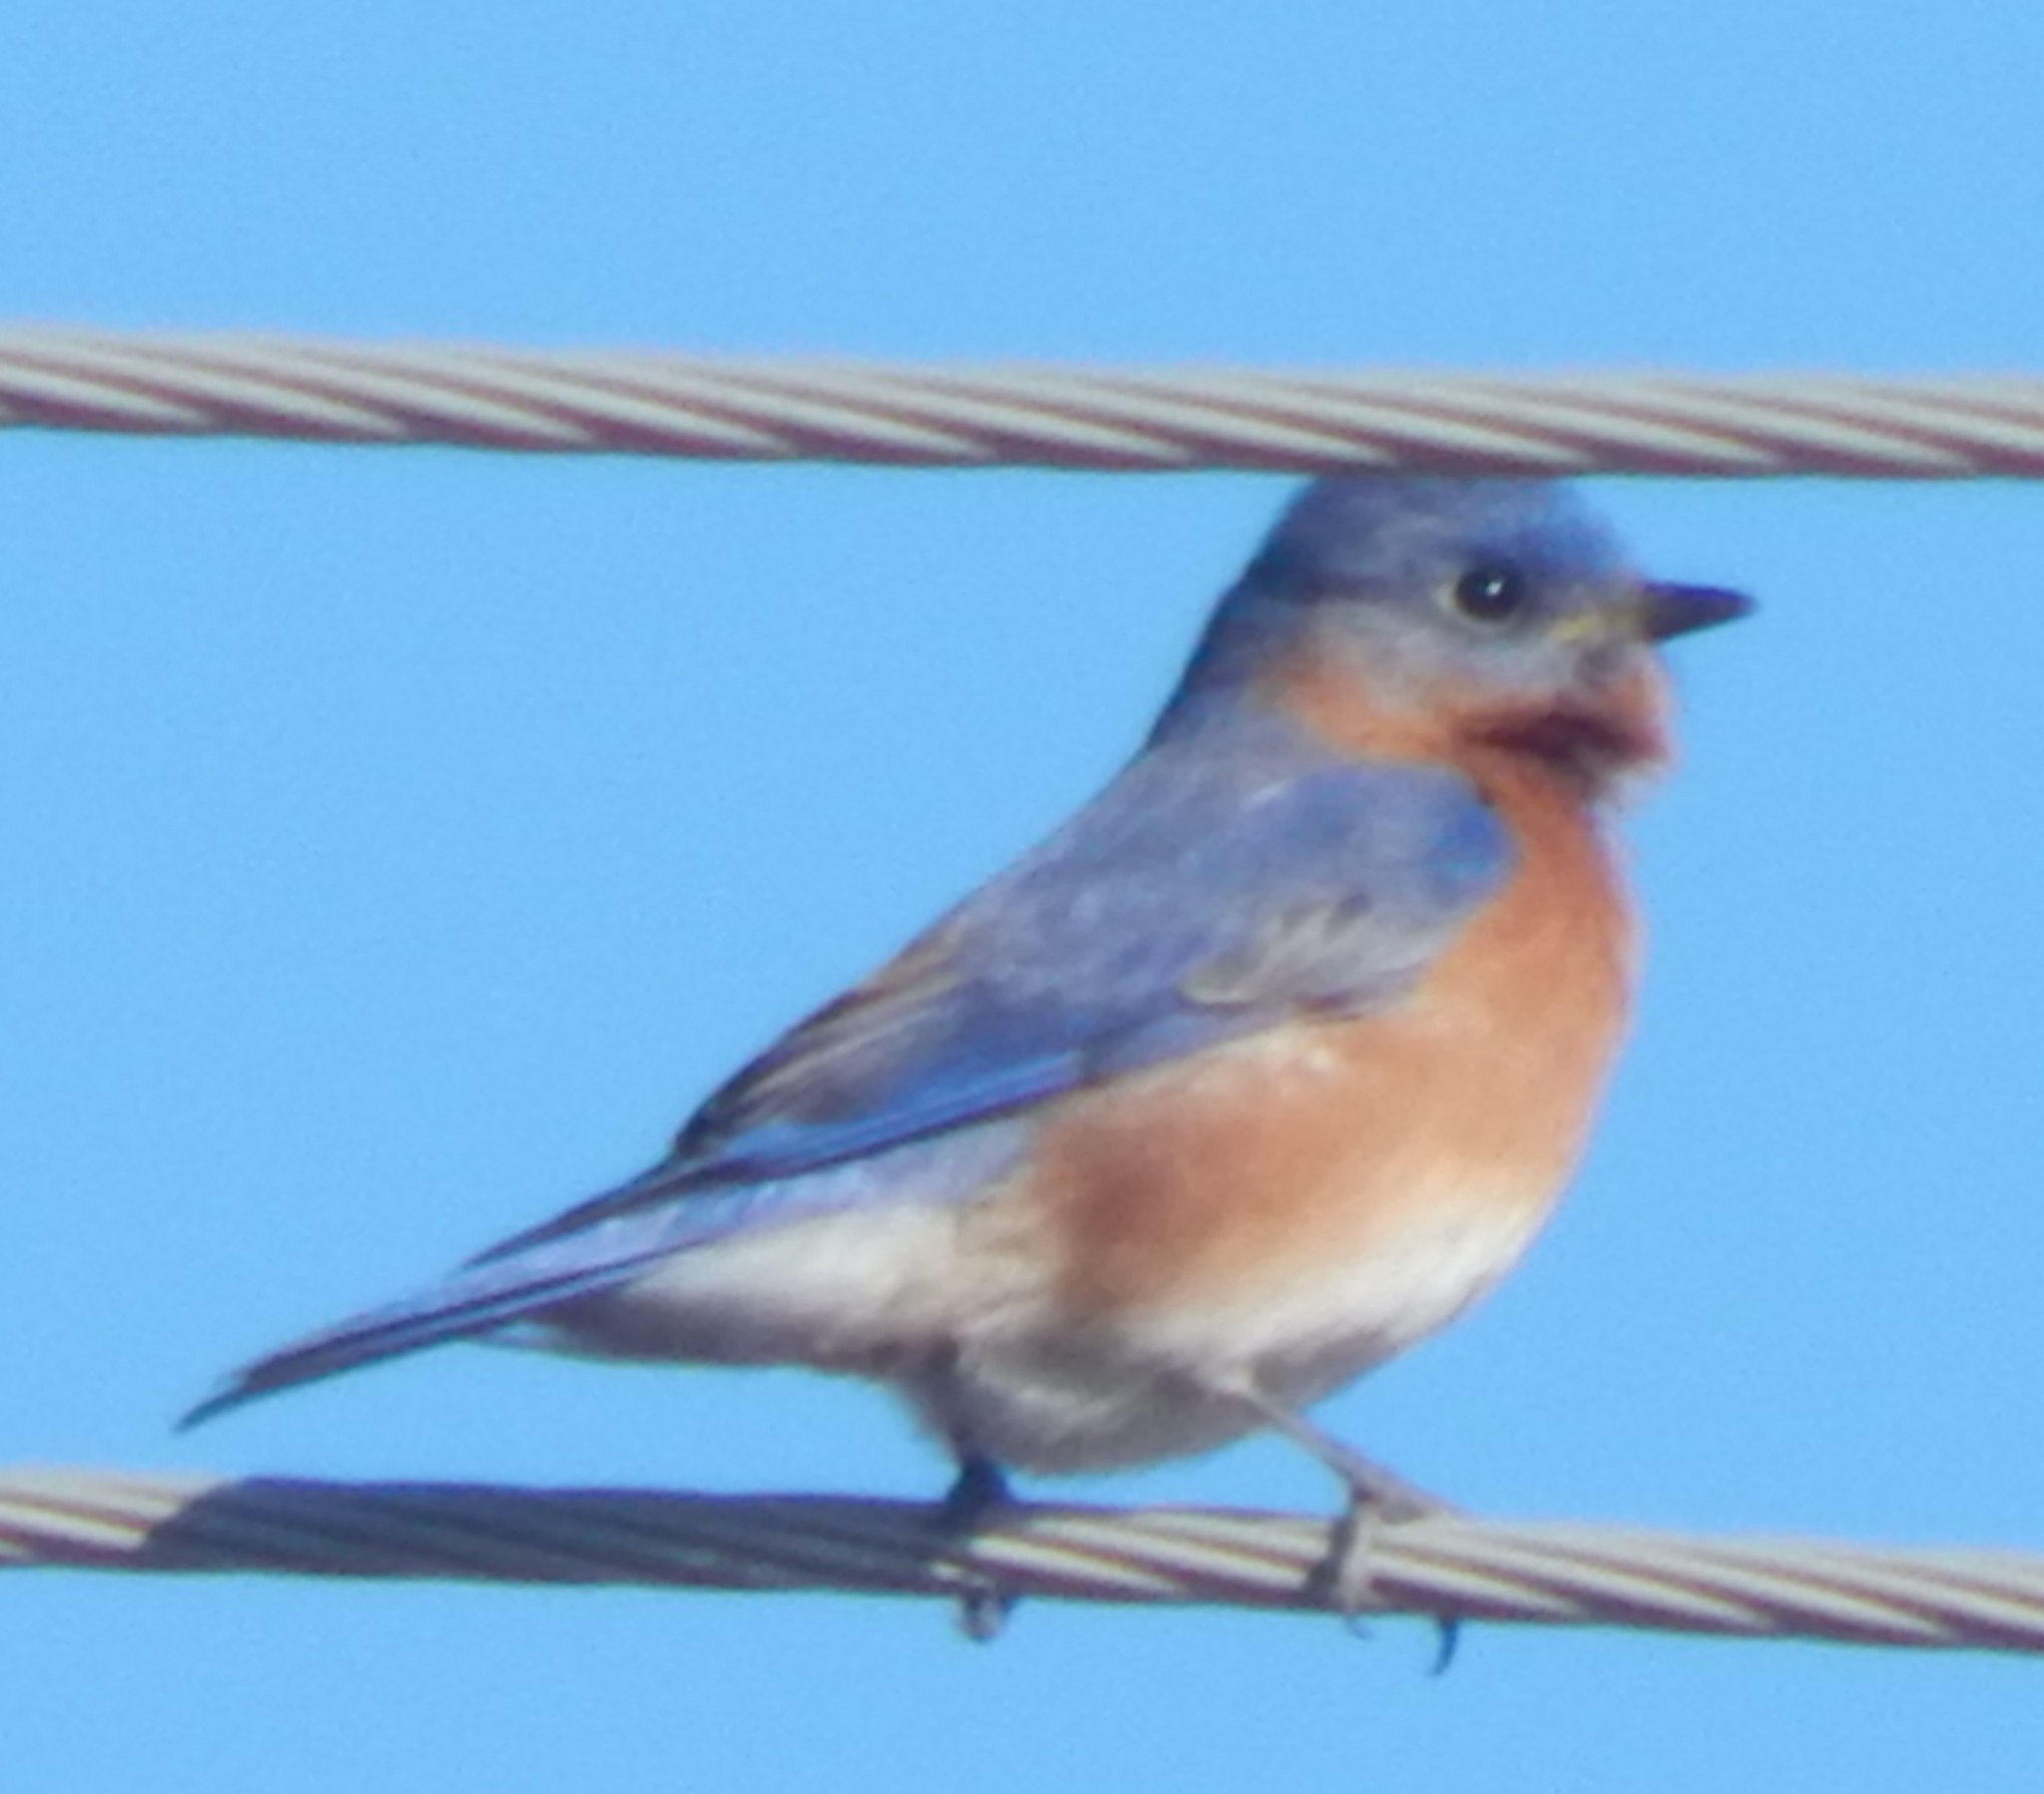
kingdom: Animalia
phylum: Chordata
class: Aves
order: Passeriformes
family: Turdidae
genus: Sialia
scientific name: Sialia sialis
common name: Eastern bluebird
